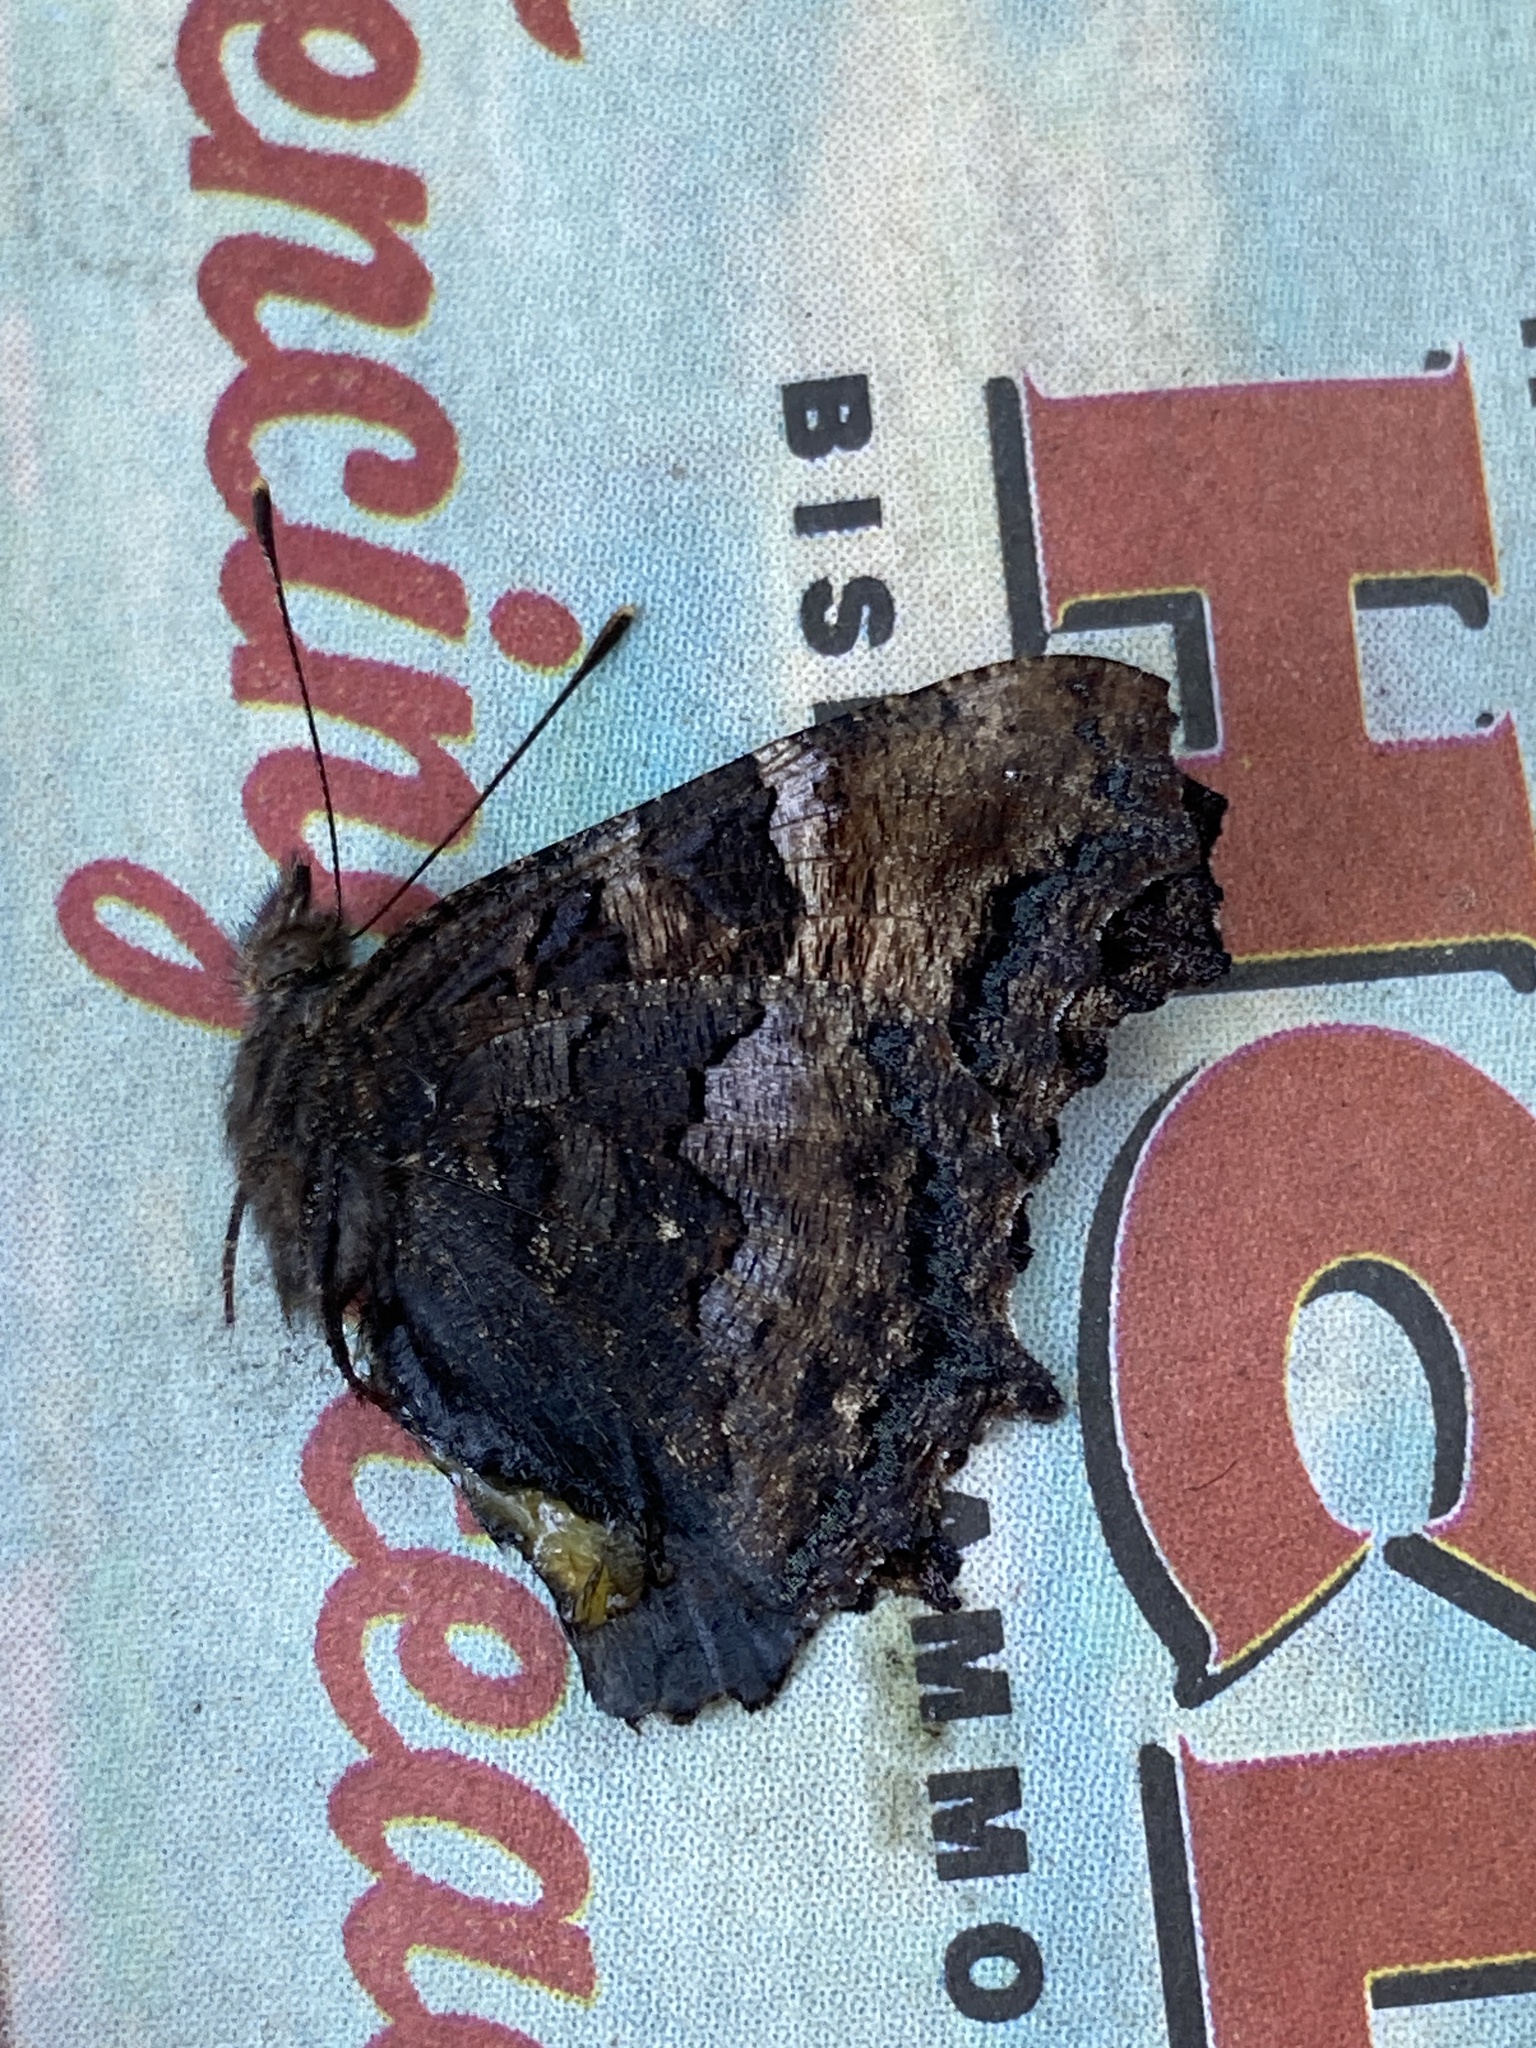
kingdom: Animalia
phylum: Arthropoda
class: Insecta
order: Lepidoptera
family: Nymphalidae
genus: Nymphalis
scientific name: Nymphalis californica
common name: California tortoiseshell
